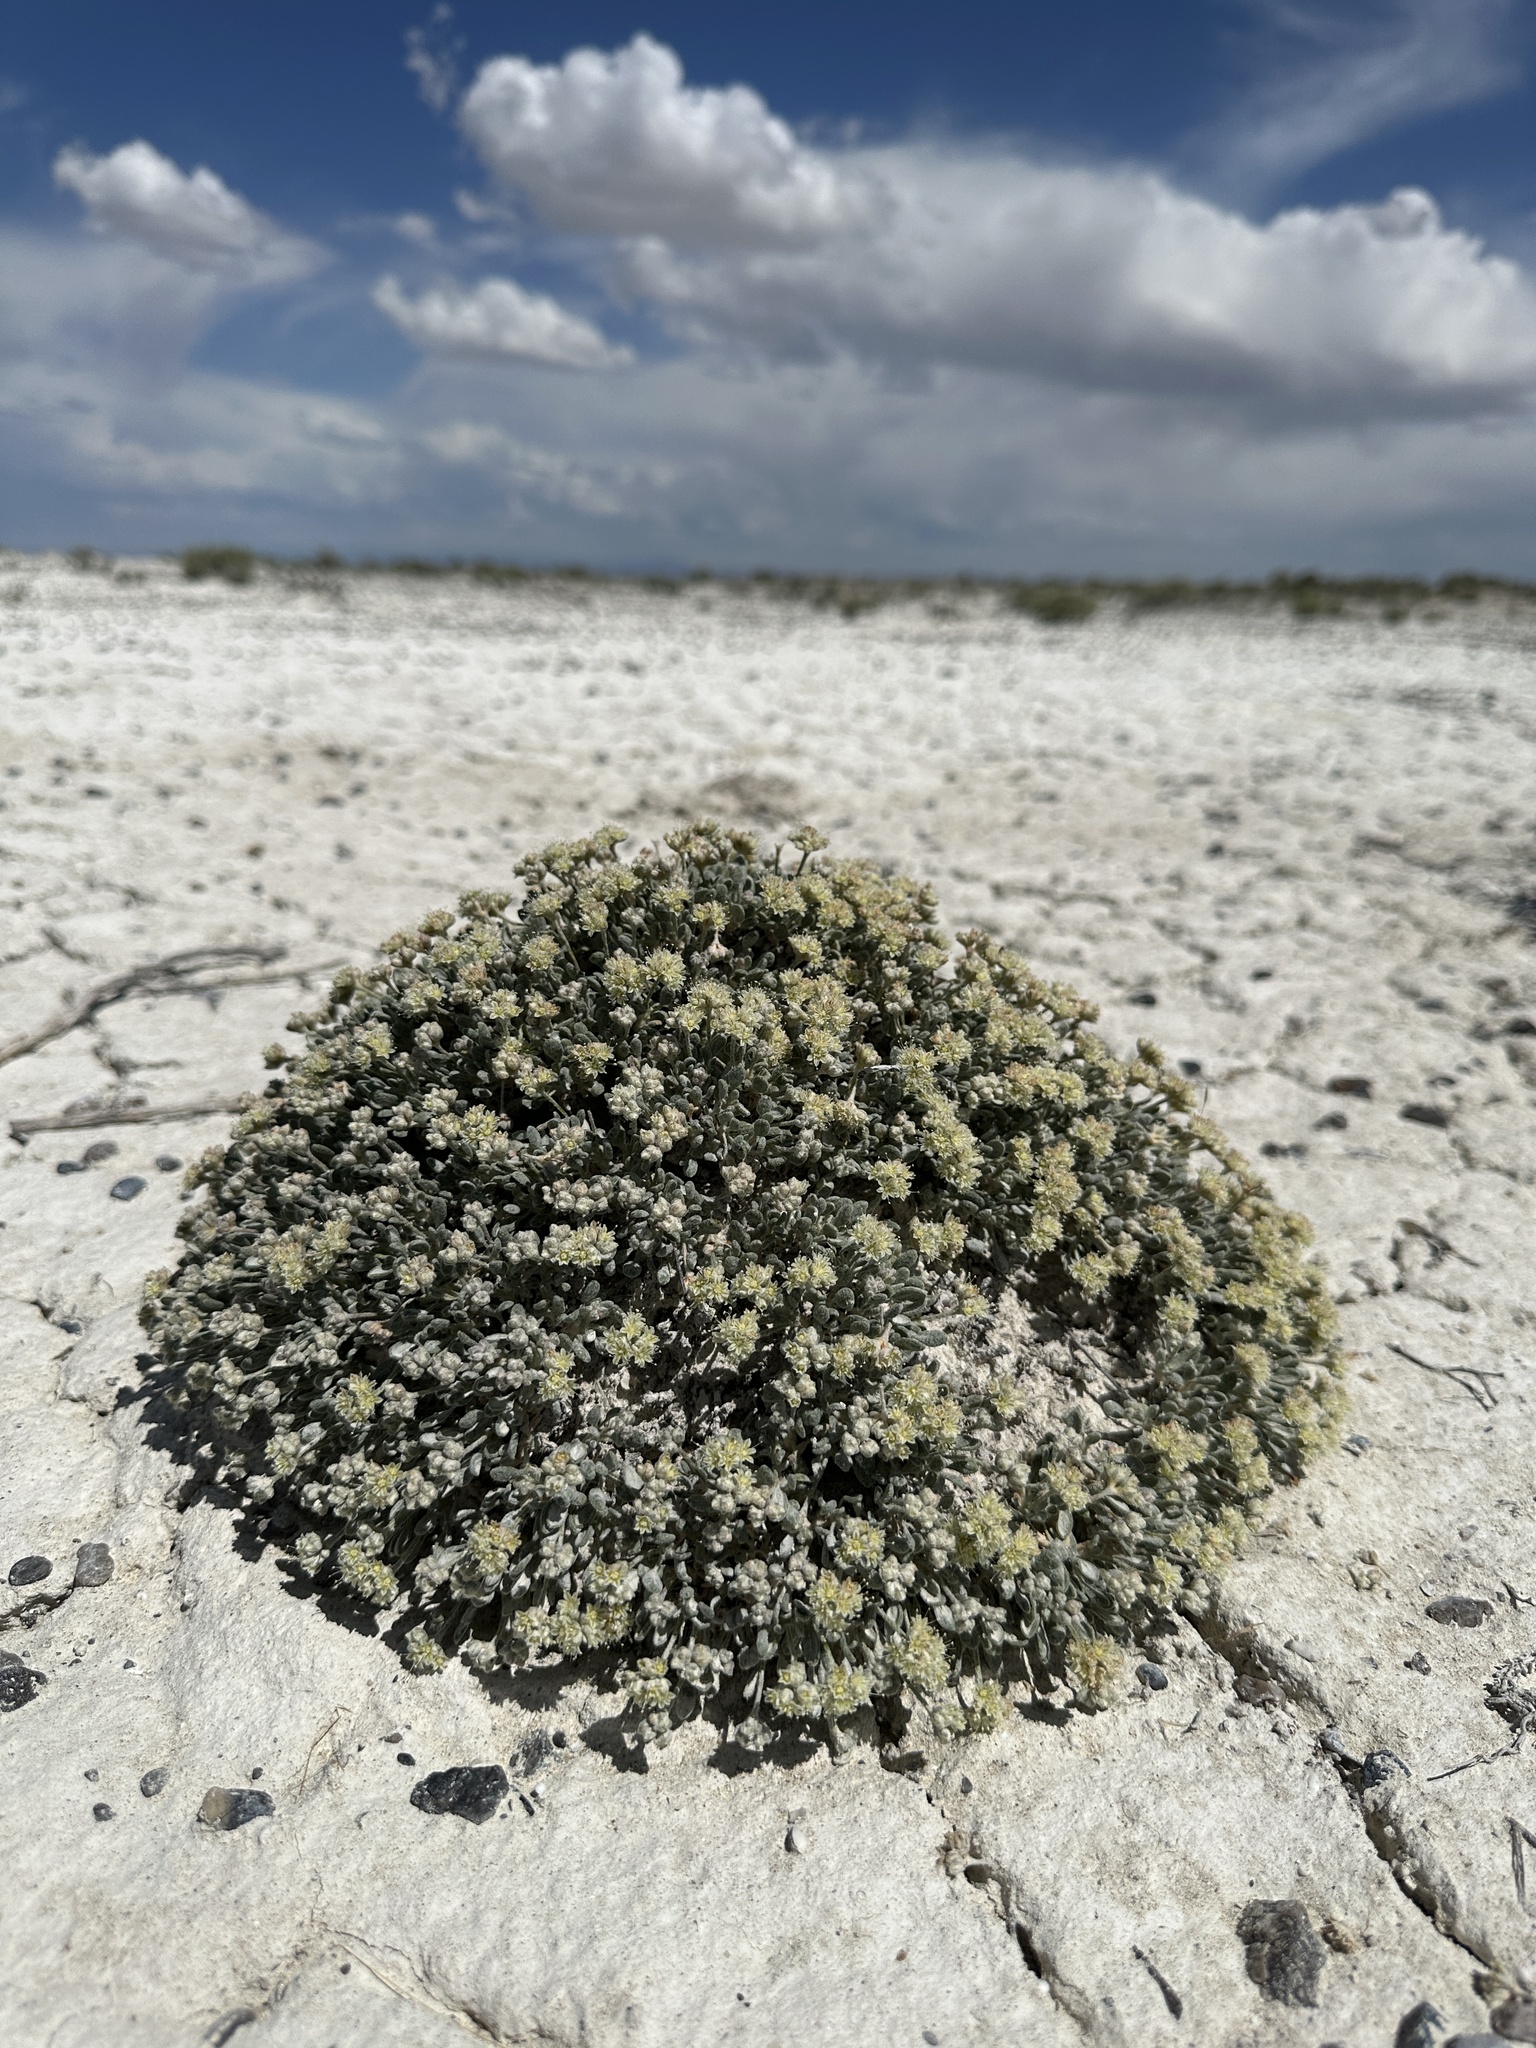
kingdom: Plantae
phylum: Tracheophyta
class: Magnoliopsida
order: Caryophyllales
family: Polygonaceae
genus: Eriogonum
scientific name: Eriogonum shockleyi
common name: Shockley's wild buckwheat
